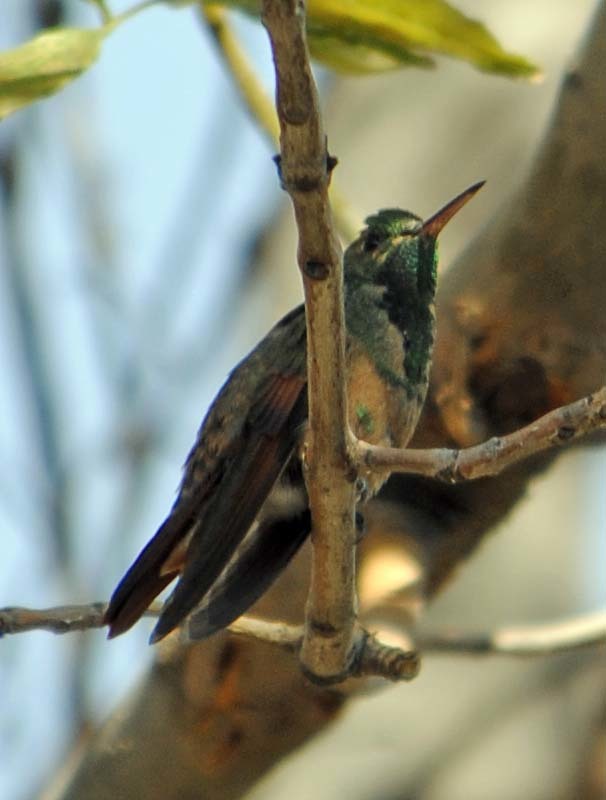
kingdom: Animalia
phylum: Chordata
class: Aves
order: Apodiformes
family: Trochilidae
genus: Saucerottia
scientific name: Saucerottia beryllina
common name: Berylline hummingbird
